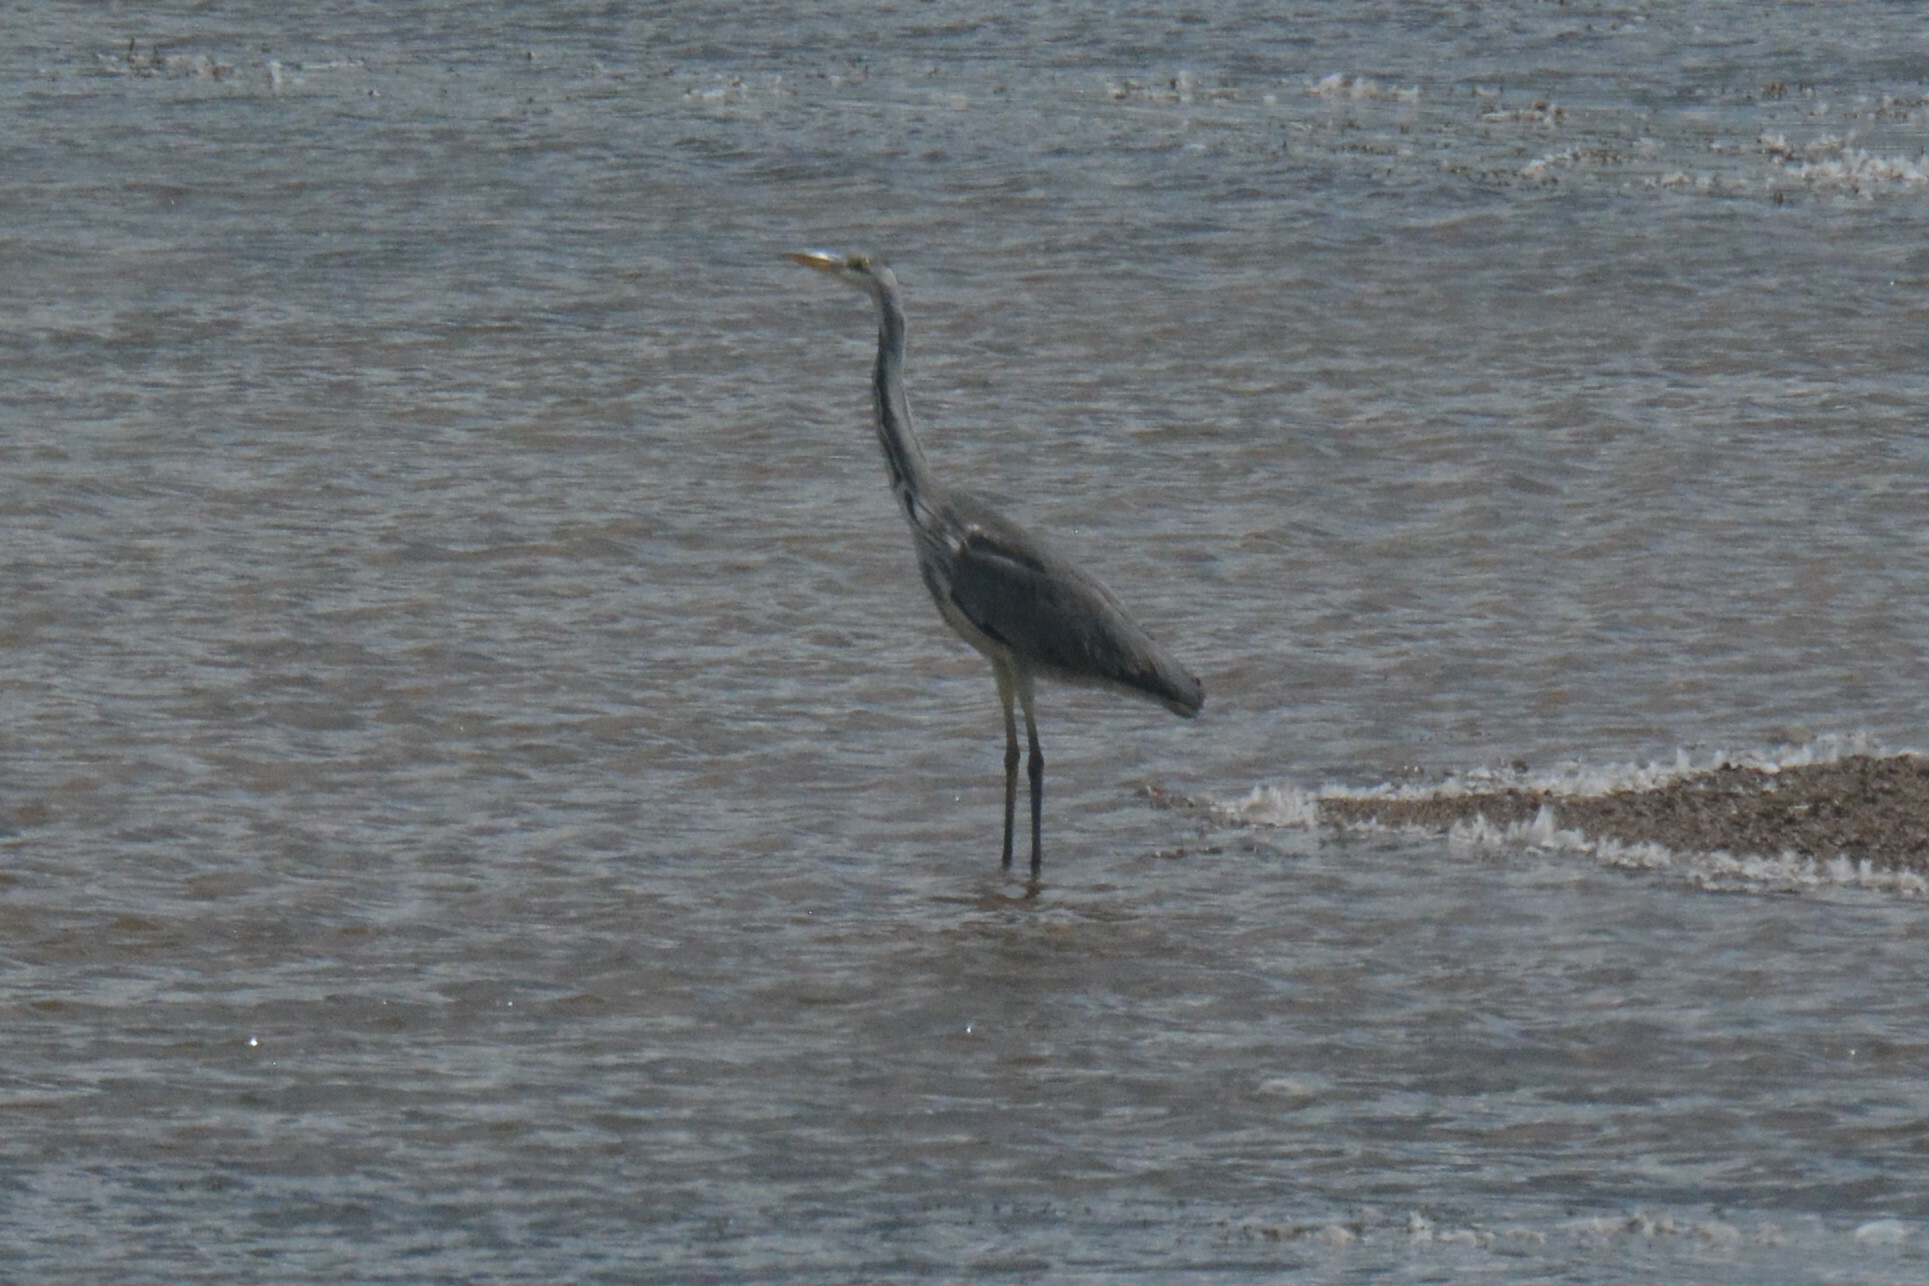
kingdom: Animalia
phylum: Chordata
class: Aves
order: Pelecaniformes
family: Ardeidae
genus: Ardea
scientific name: Ardea cinerea
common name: Grey heron
